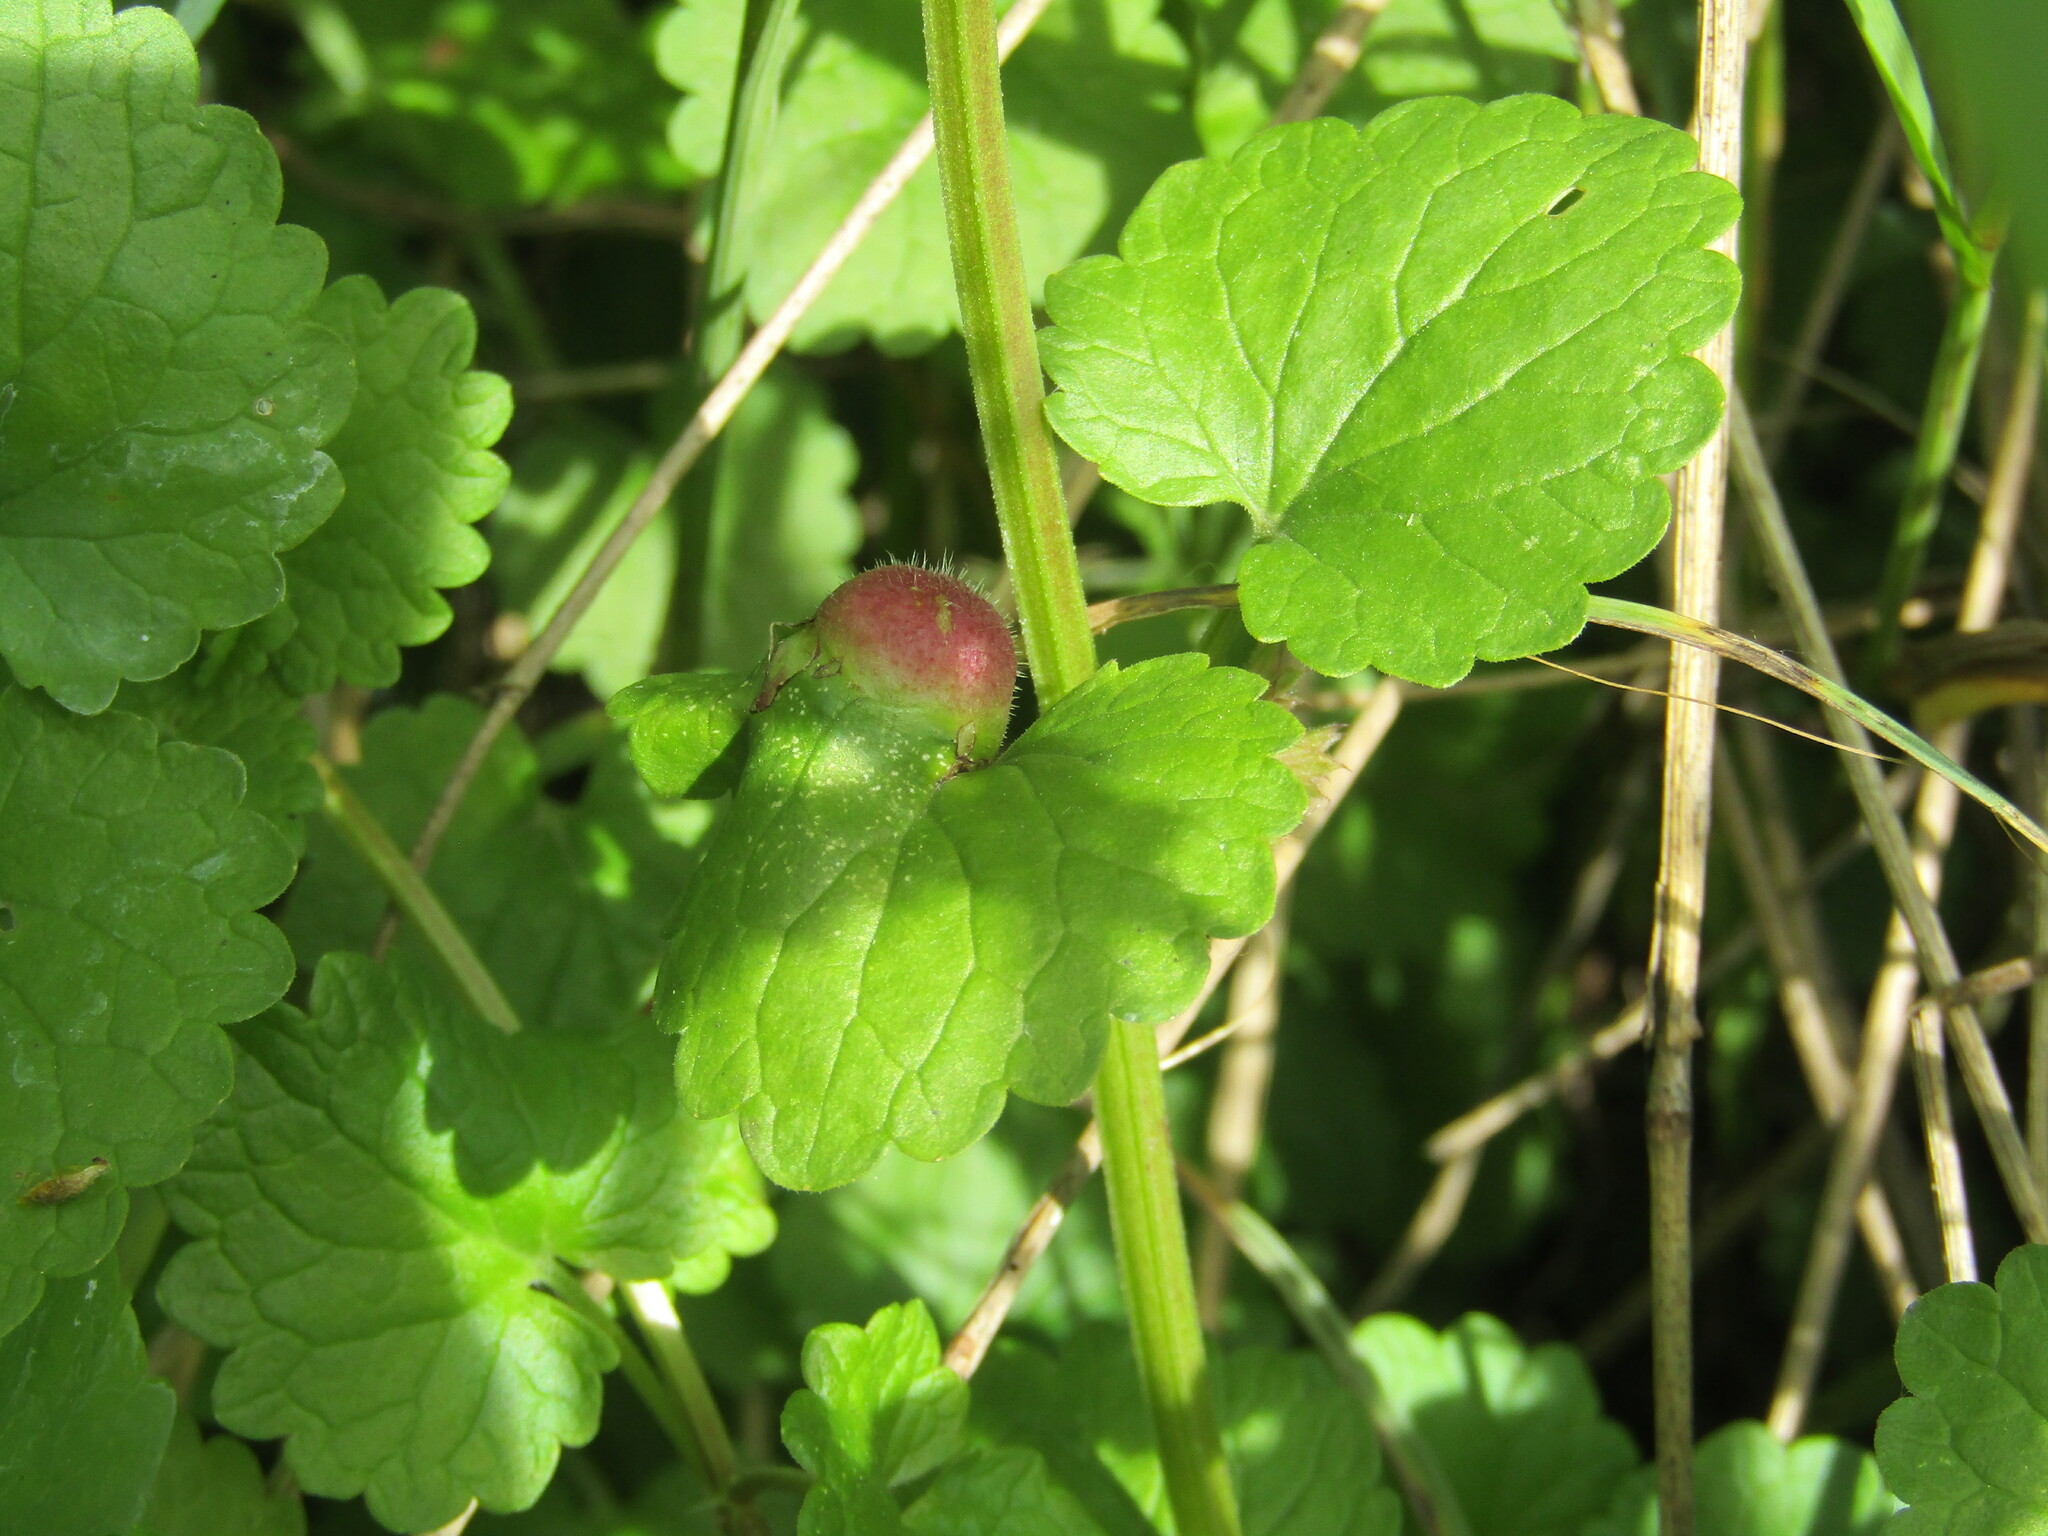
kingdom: Animalia
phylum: Arthropoda
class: Insecta
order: Hymenoptera
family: Cynipidae
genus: Liposthenes
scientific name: Liposthenes glechomae
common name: Gall wasp
